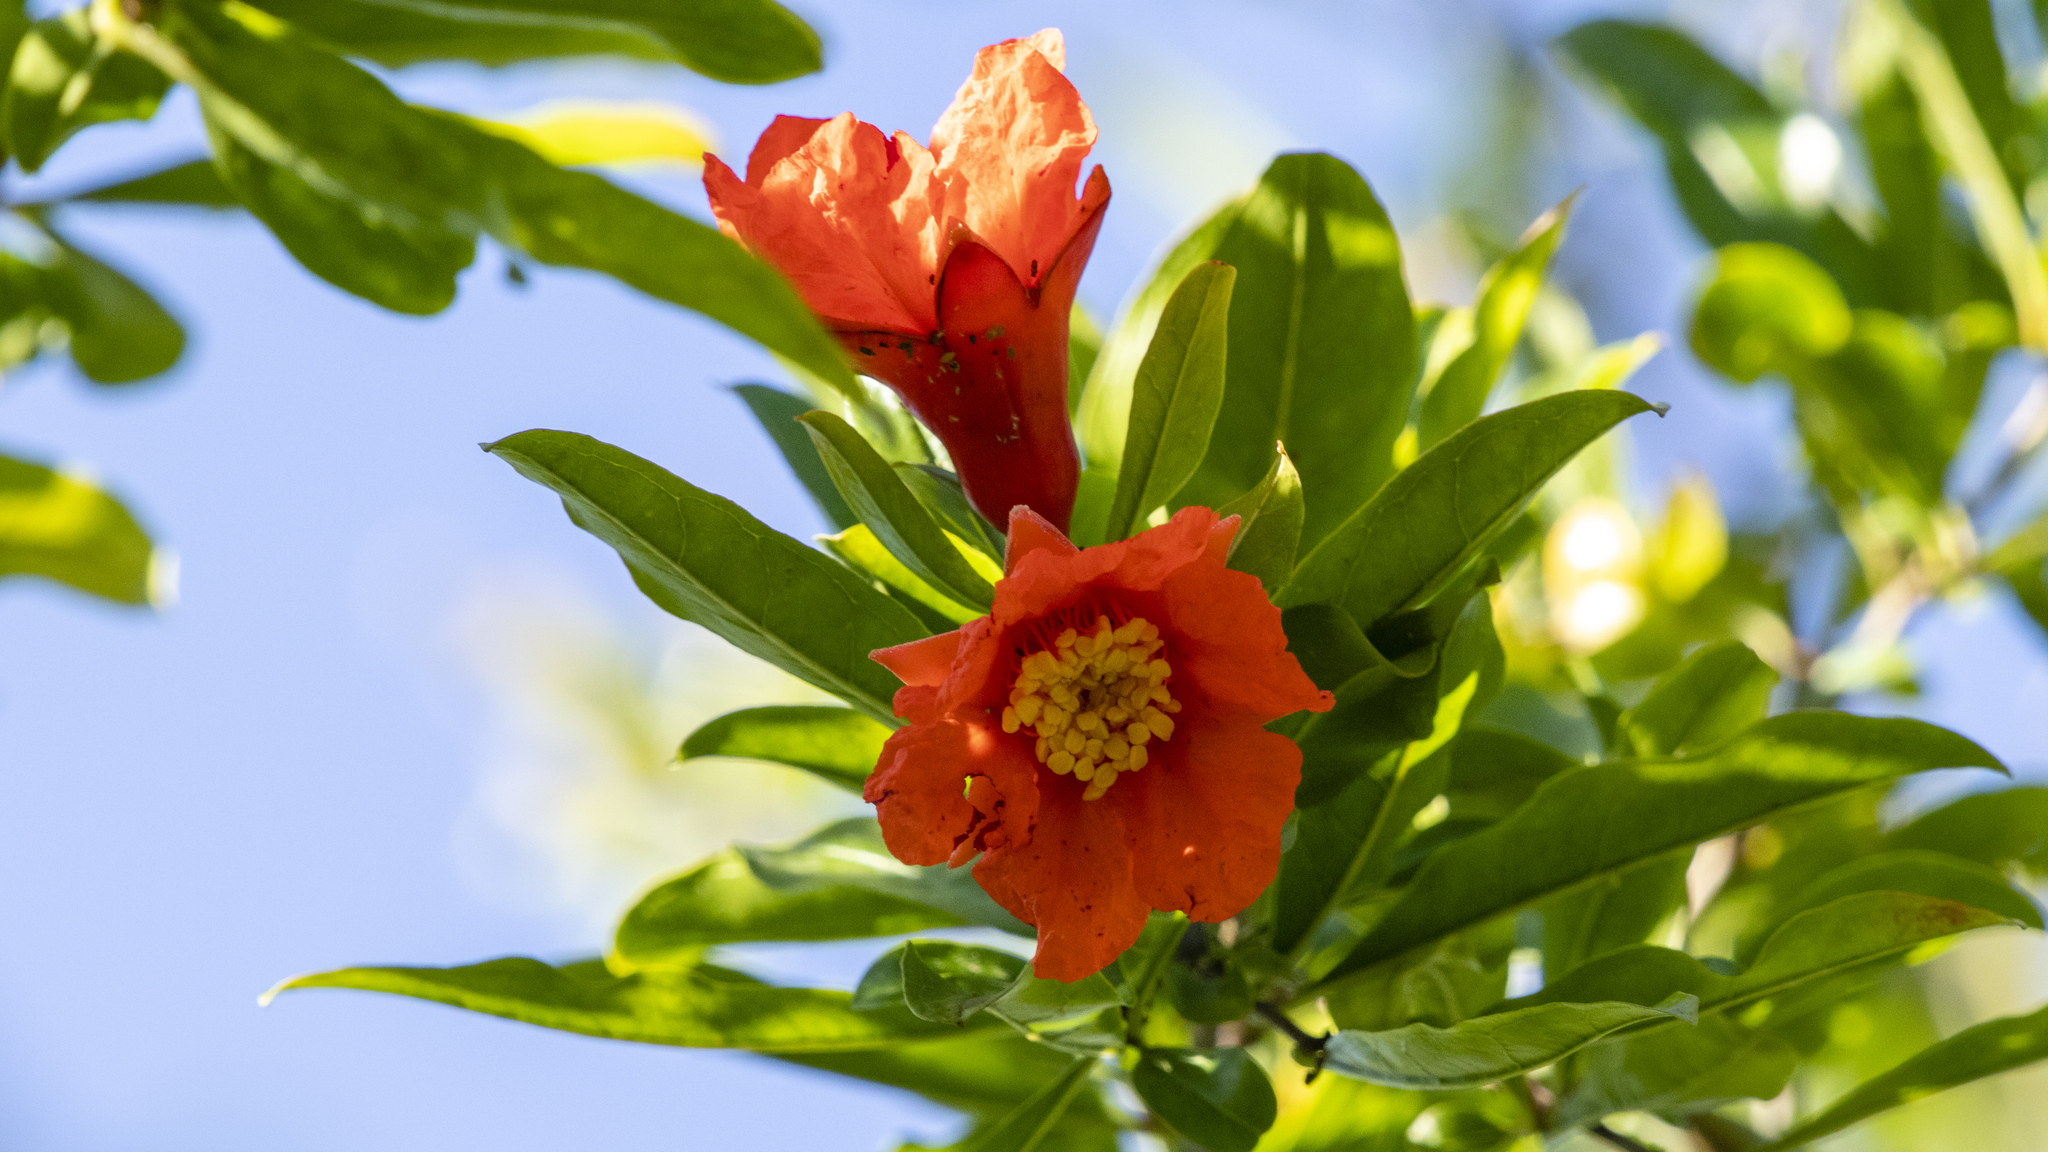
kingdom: Plantae
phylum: Tracheophyta
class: Magnoliopsida
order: Myrtales
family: Lythraceae
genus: Punica
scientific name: Punica granatum
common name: Pomegranate
